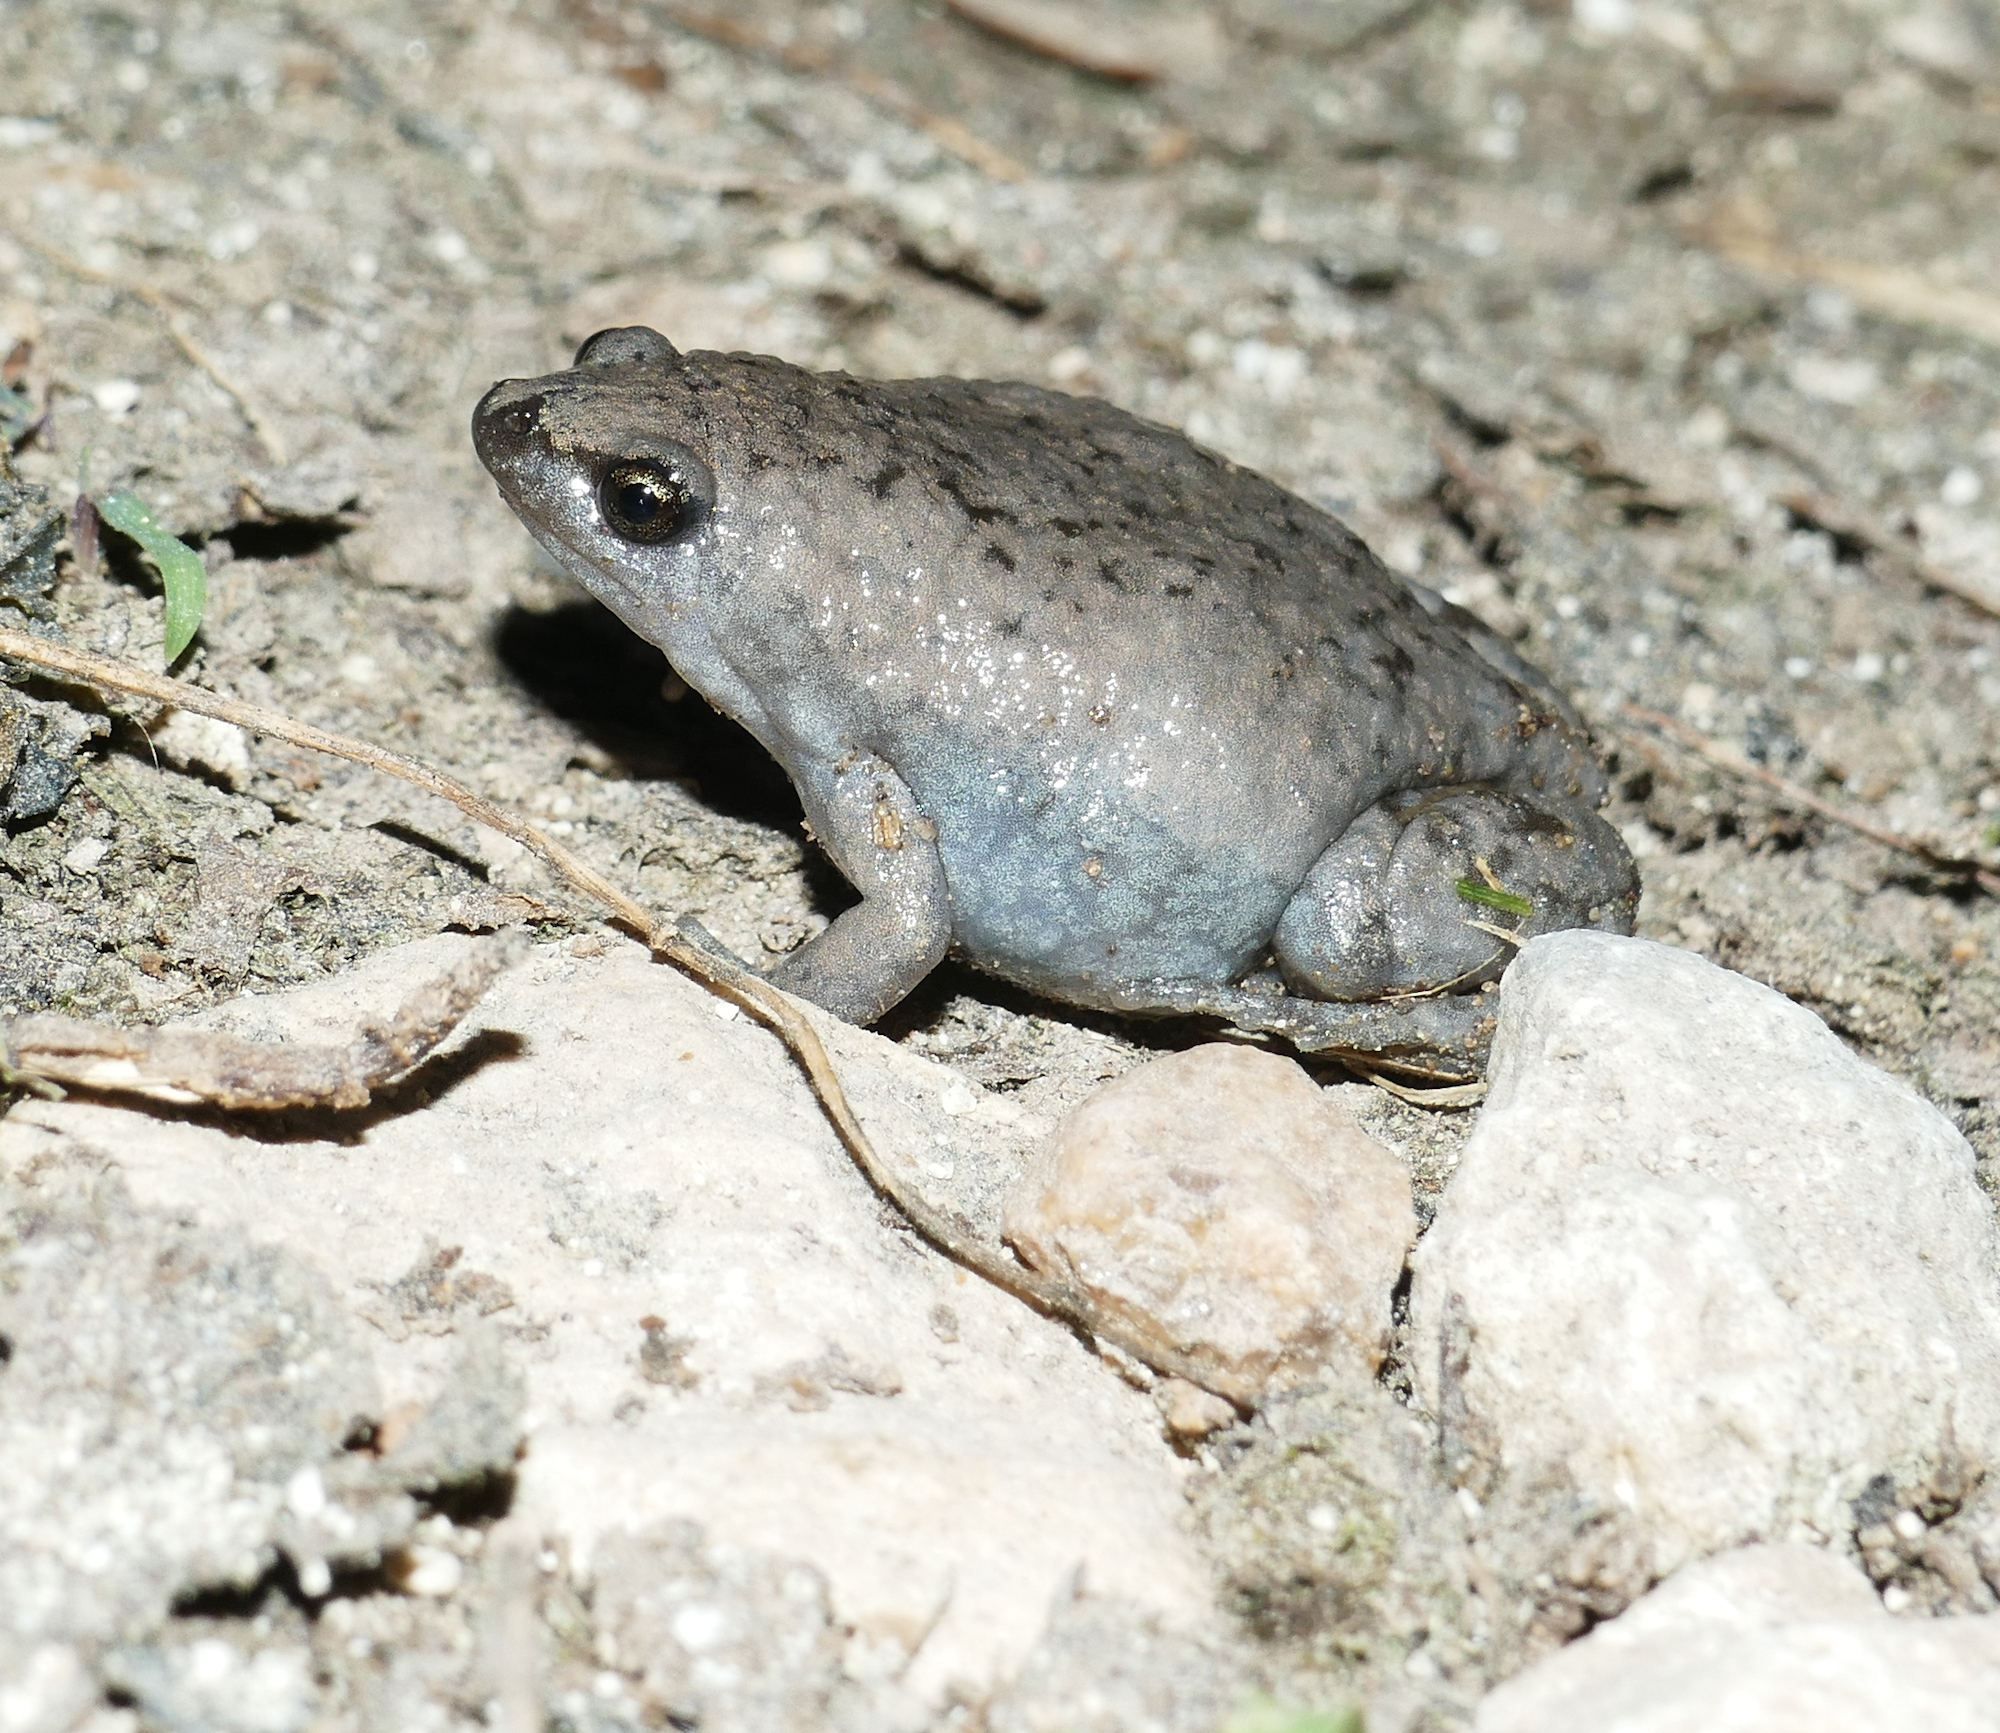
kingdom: Animalia
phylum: Chordata
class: Amphibia
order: Anura
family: Microhylidae
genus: Gastrophryne
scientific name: Gastrophryne carolinensis
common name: Eastern narrowmouth toad
